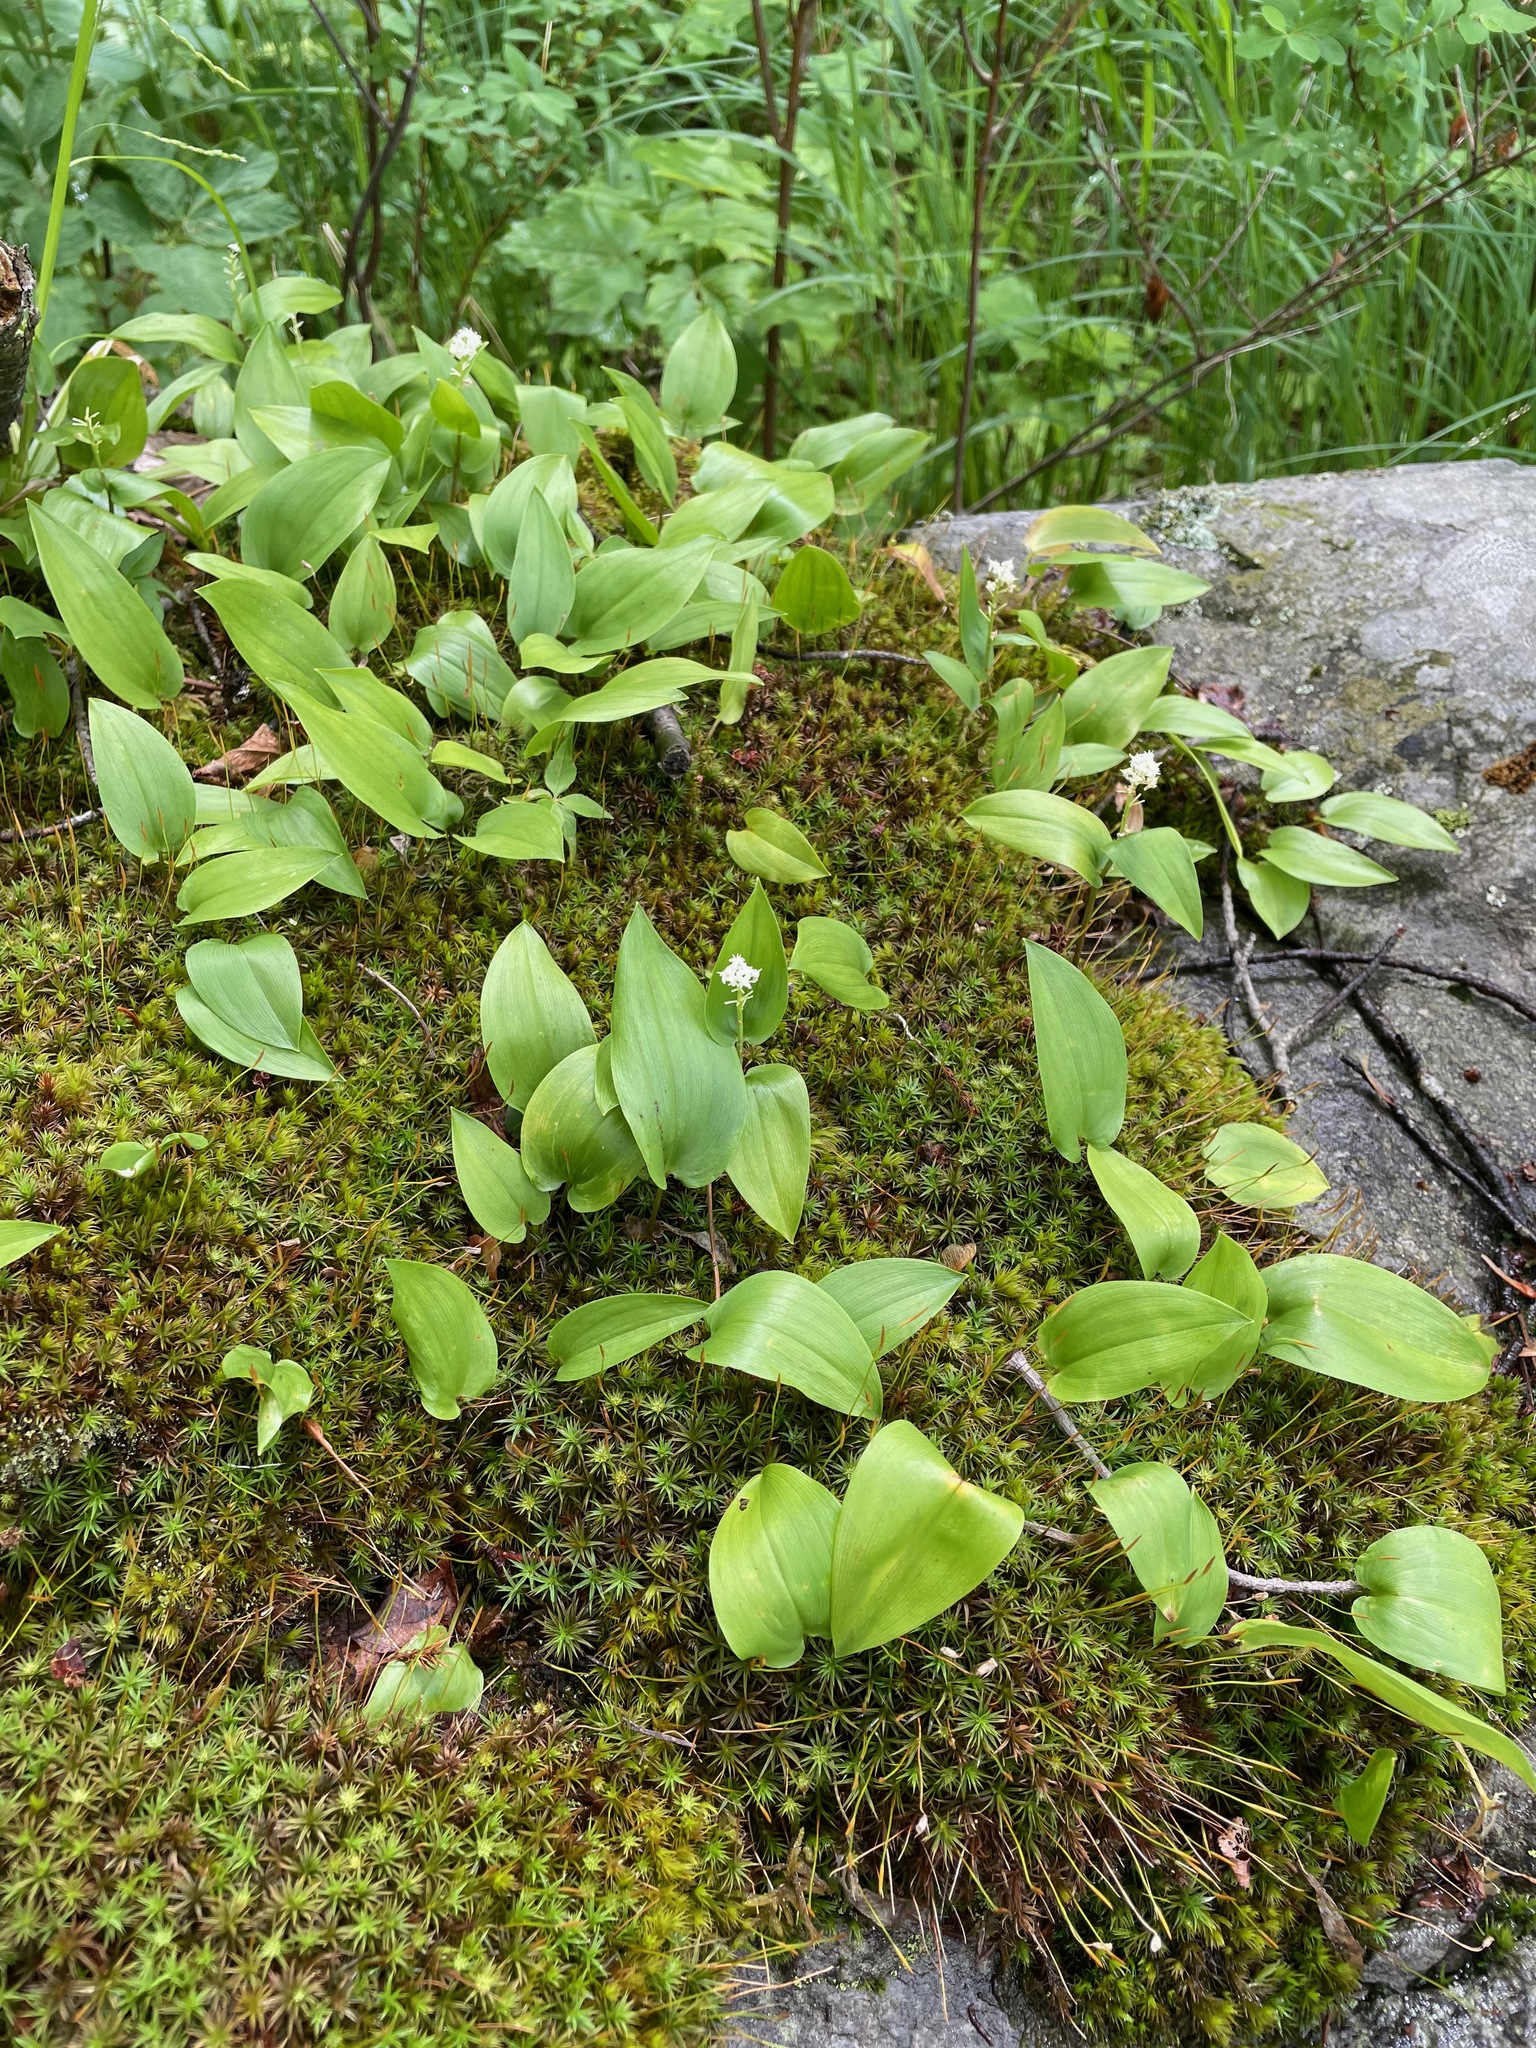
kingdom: Plantae
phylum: Tracheophyta
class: Liliopsida
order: Asparagales
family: Asparagaceae
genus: Maianthemum
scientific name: Maianthemum canadense
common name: False lily-of-the-valley
